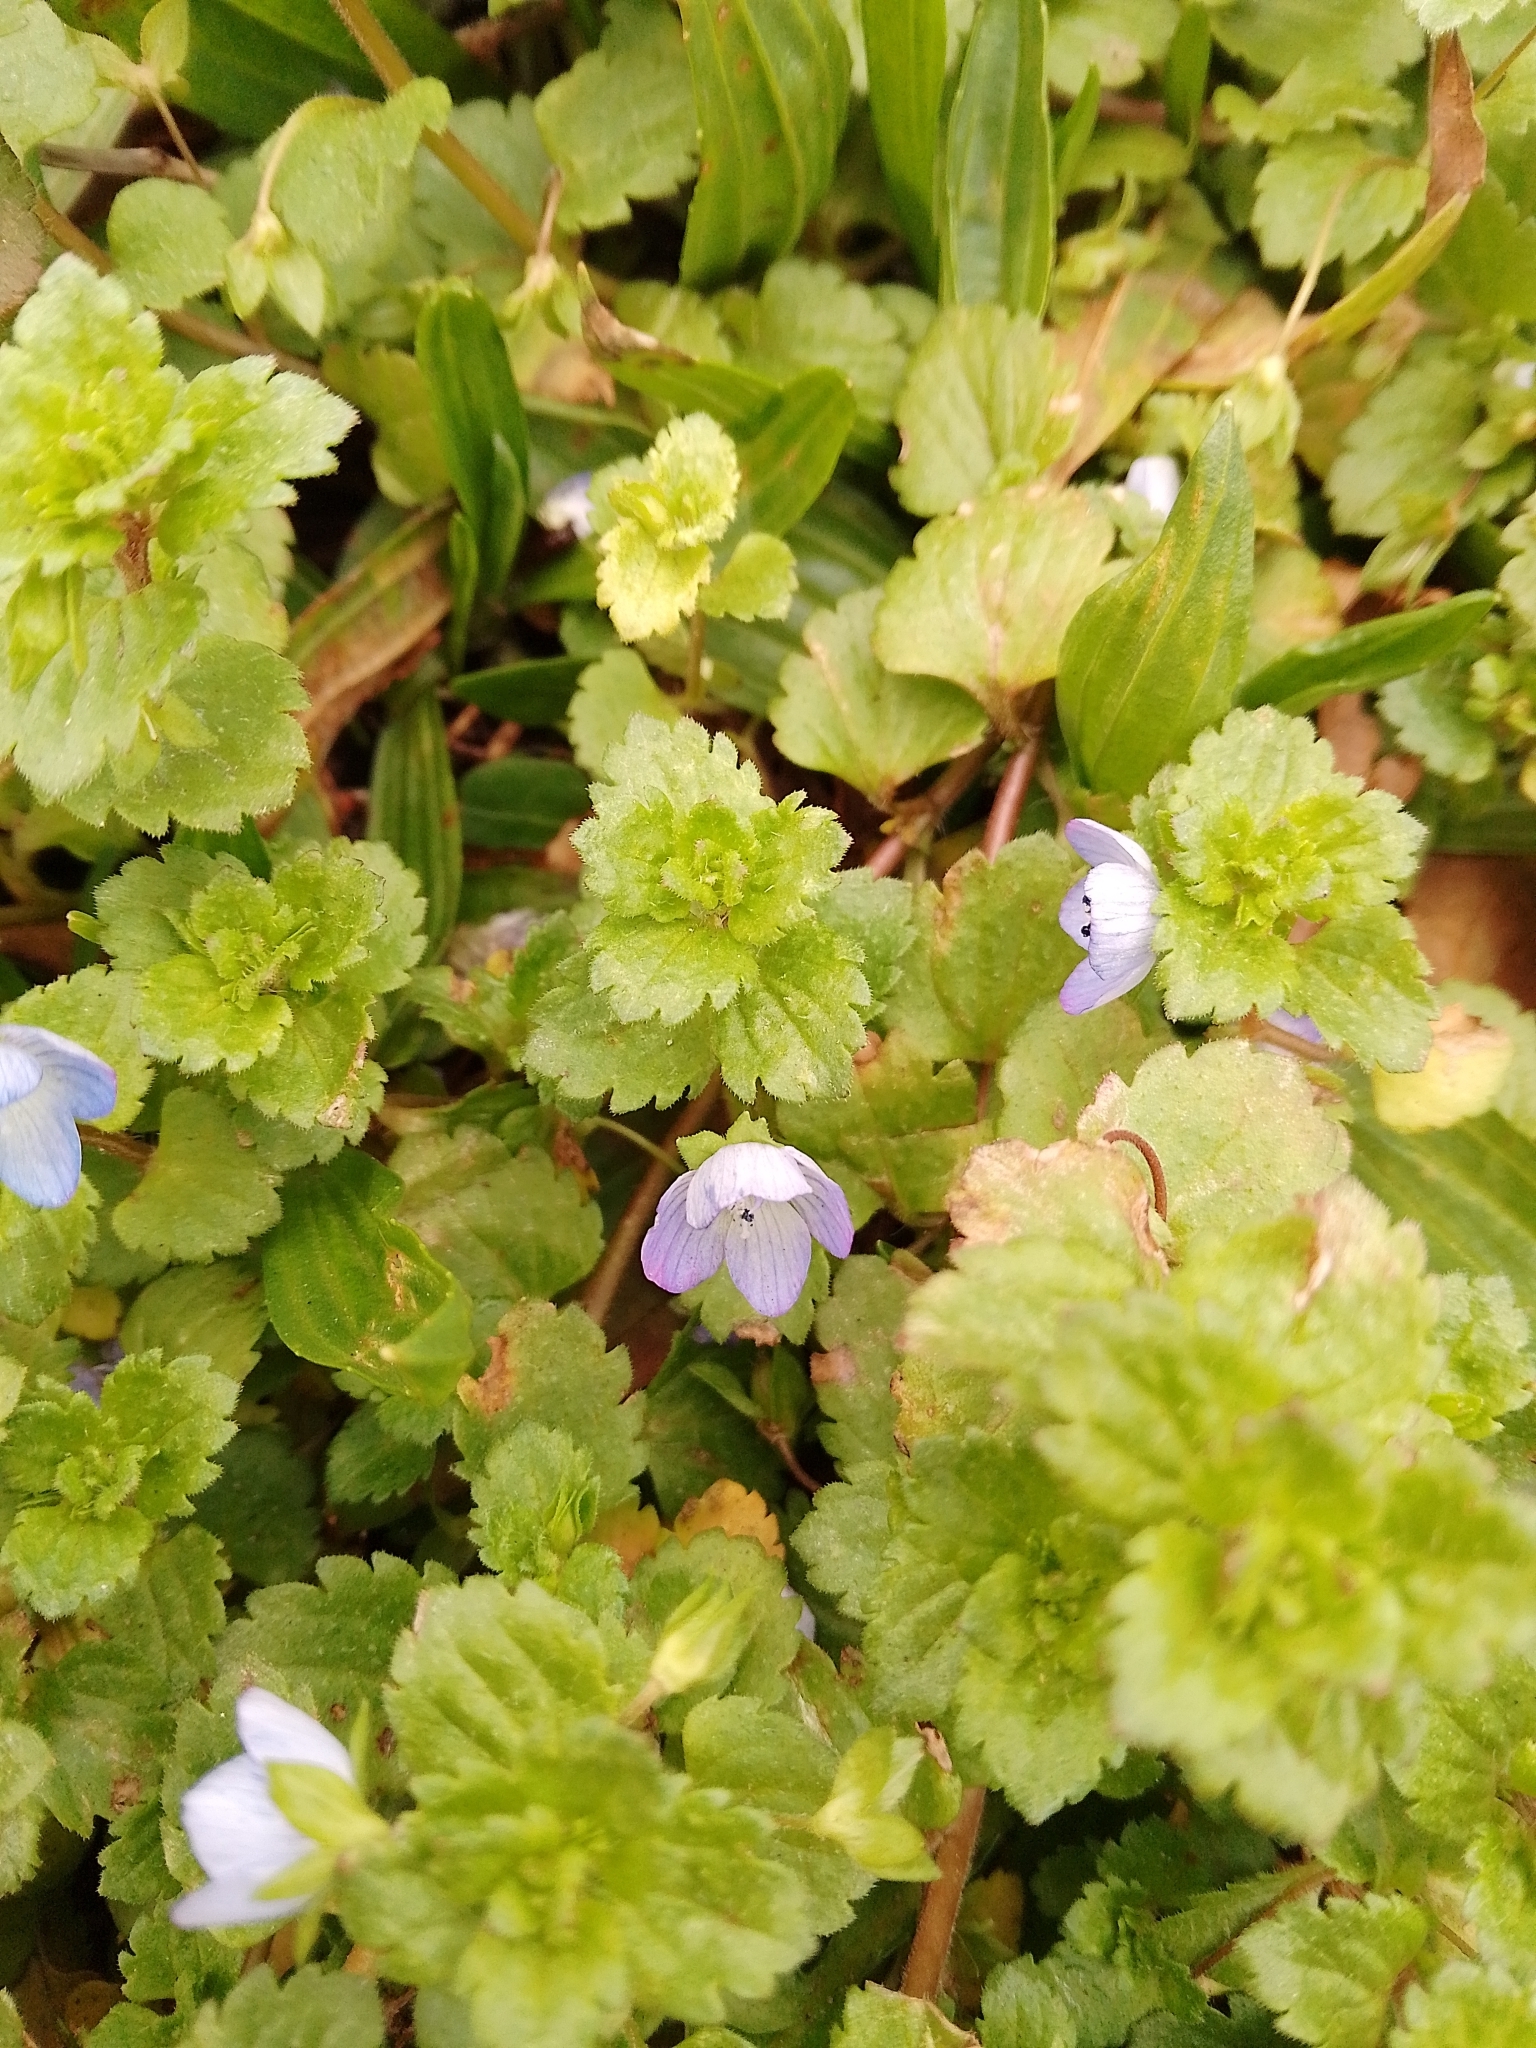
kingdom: Plantae
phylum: Tracheophyta
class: Magnoliopsida
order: Lamiales
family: Plantaginaceae
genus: Veronica
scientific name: Veronica persica
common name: Common field-speedwell
